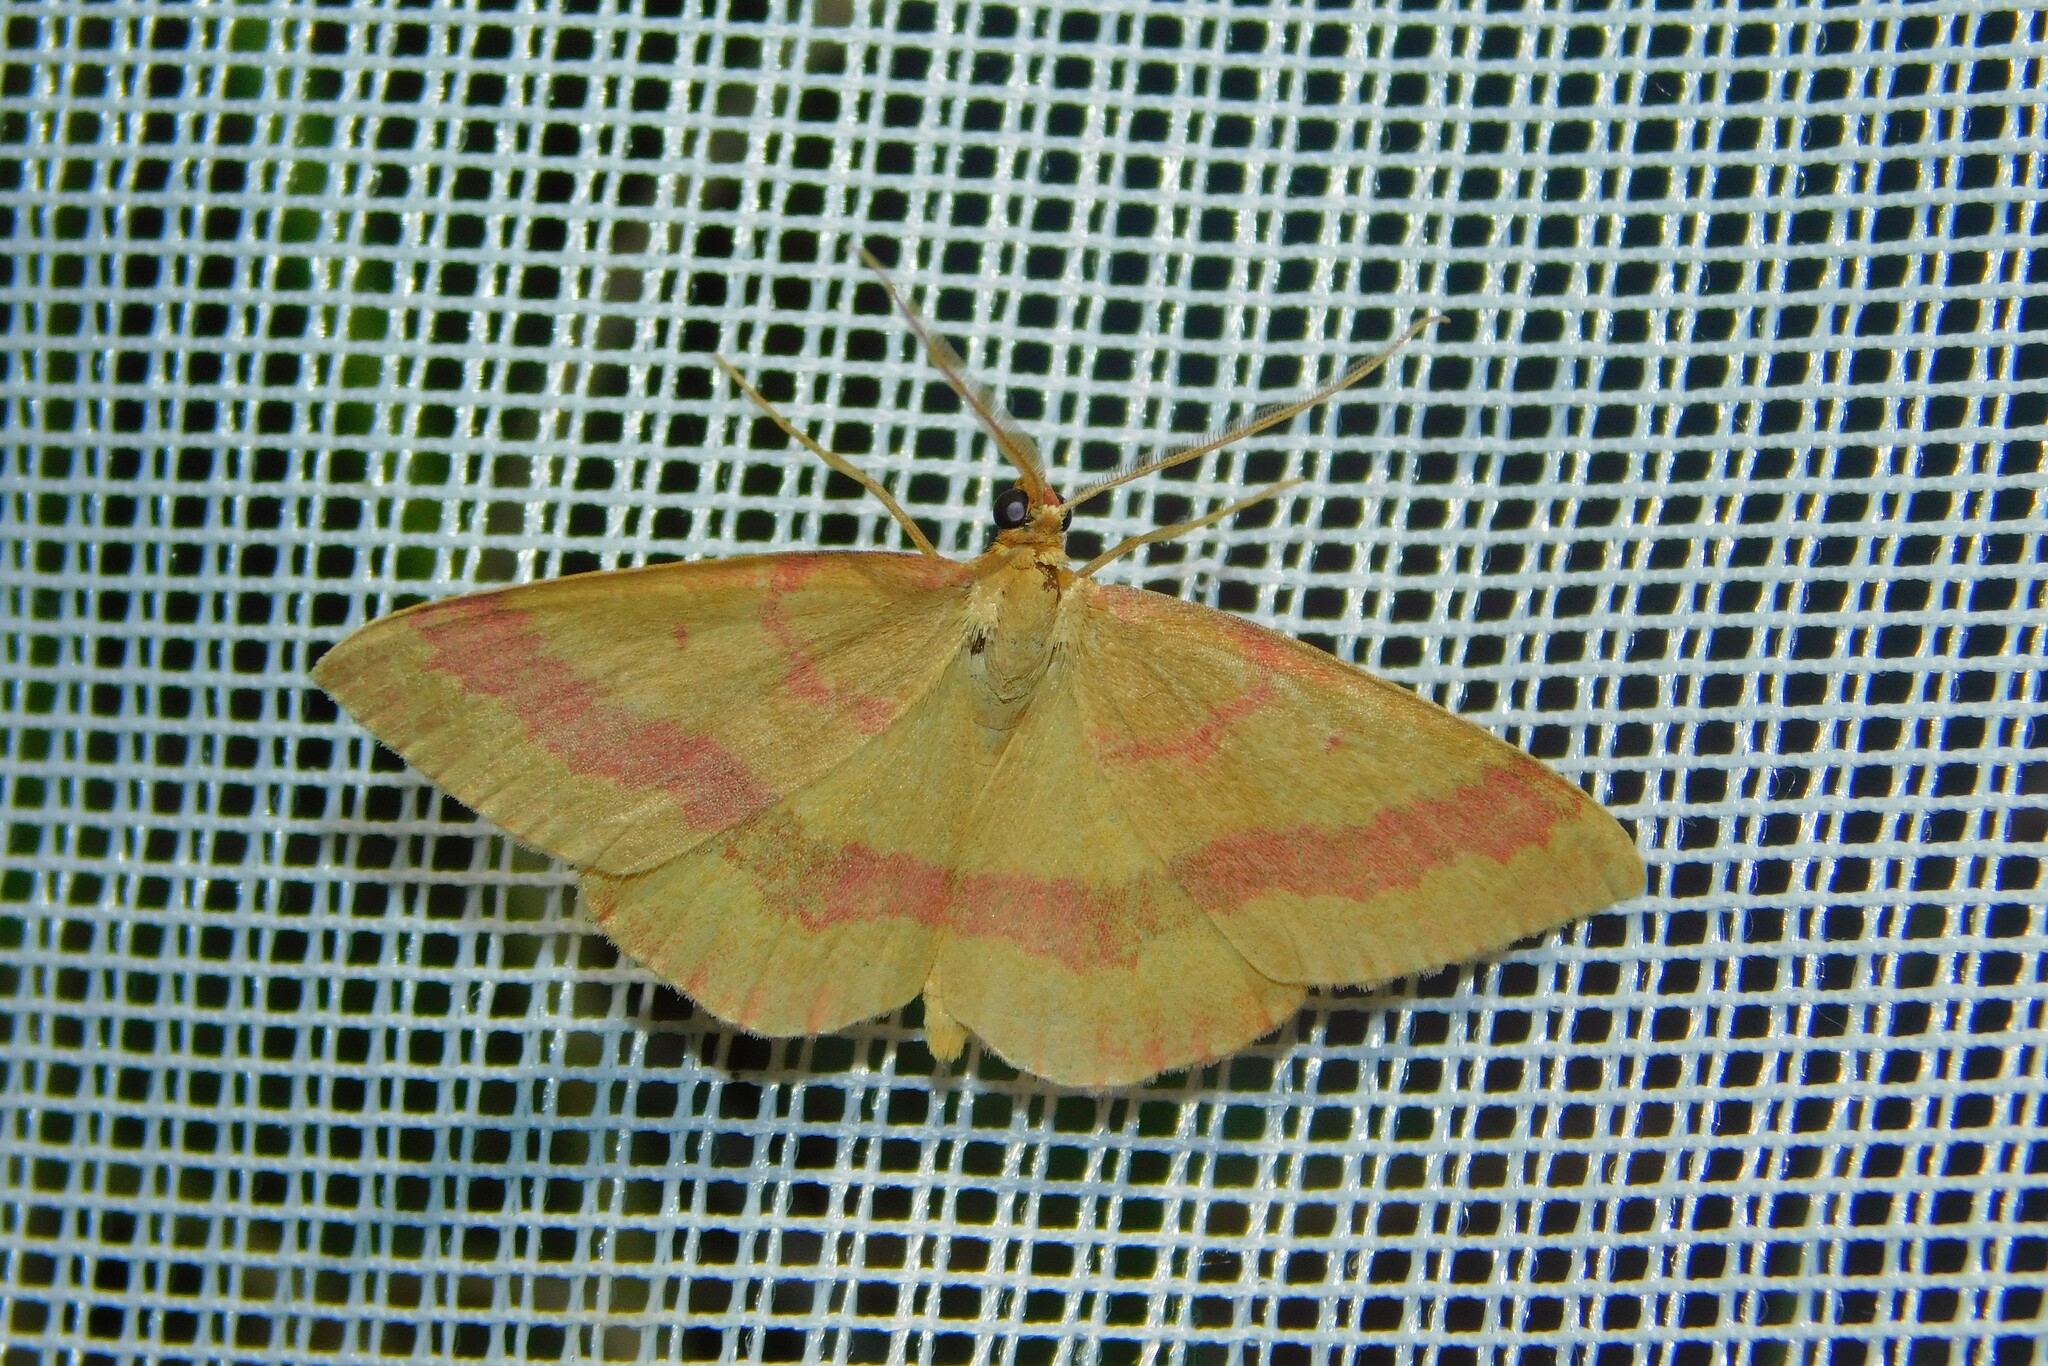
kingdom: Animalia
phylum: Arthropoda
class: Insecta
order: Lepidoptera
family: Geometridae
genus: Rhodostrophia
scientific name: Rhodostrophia calabra
